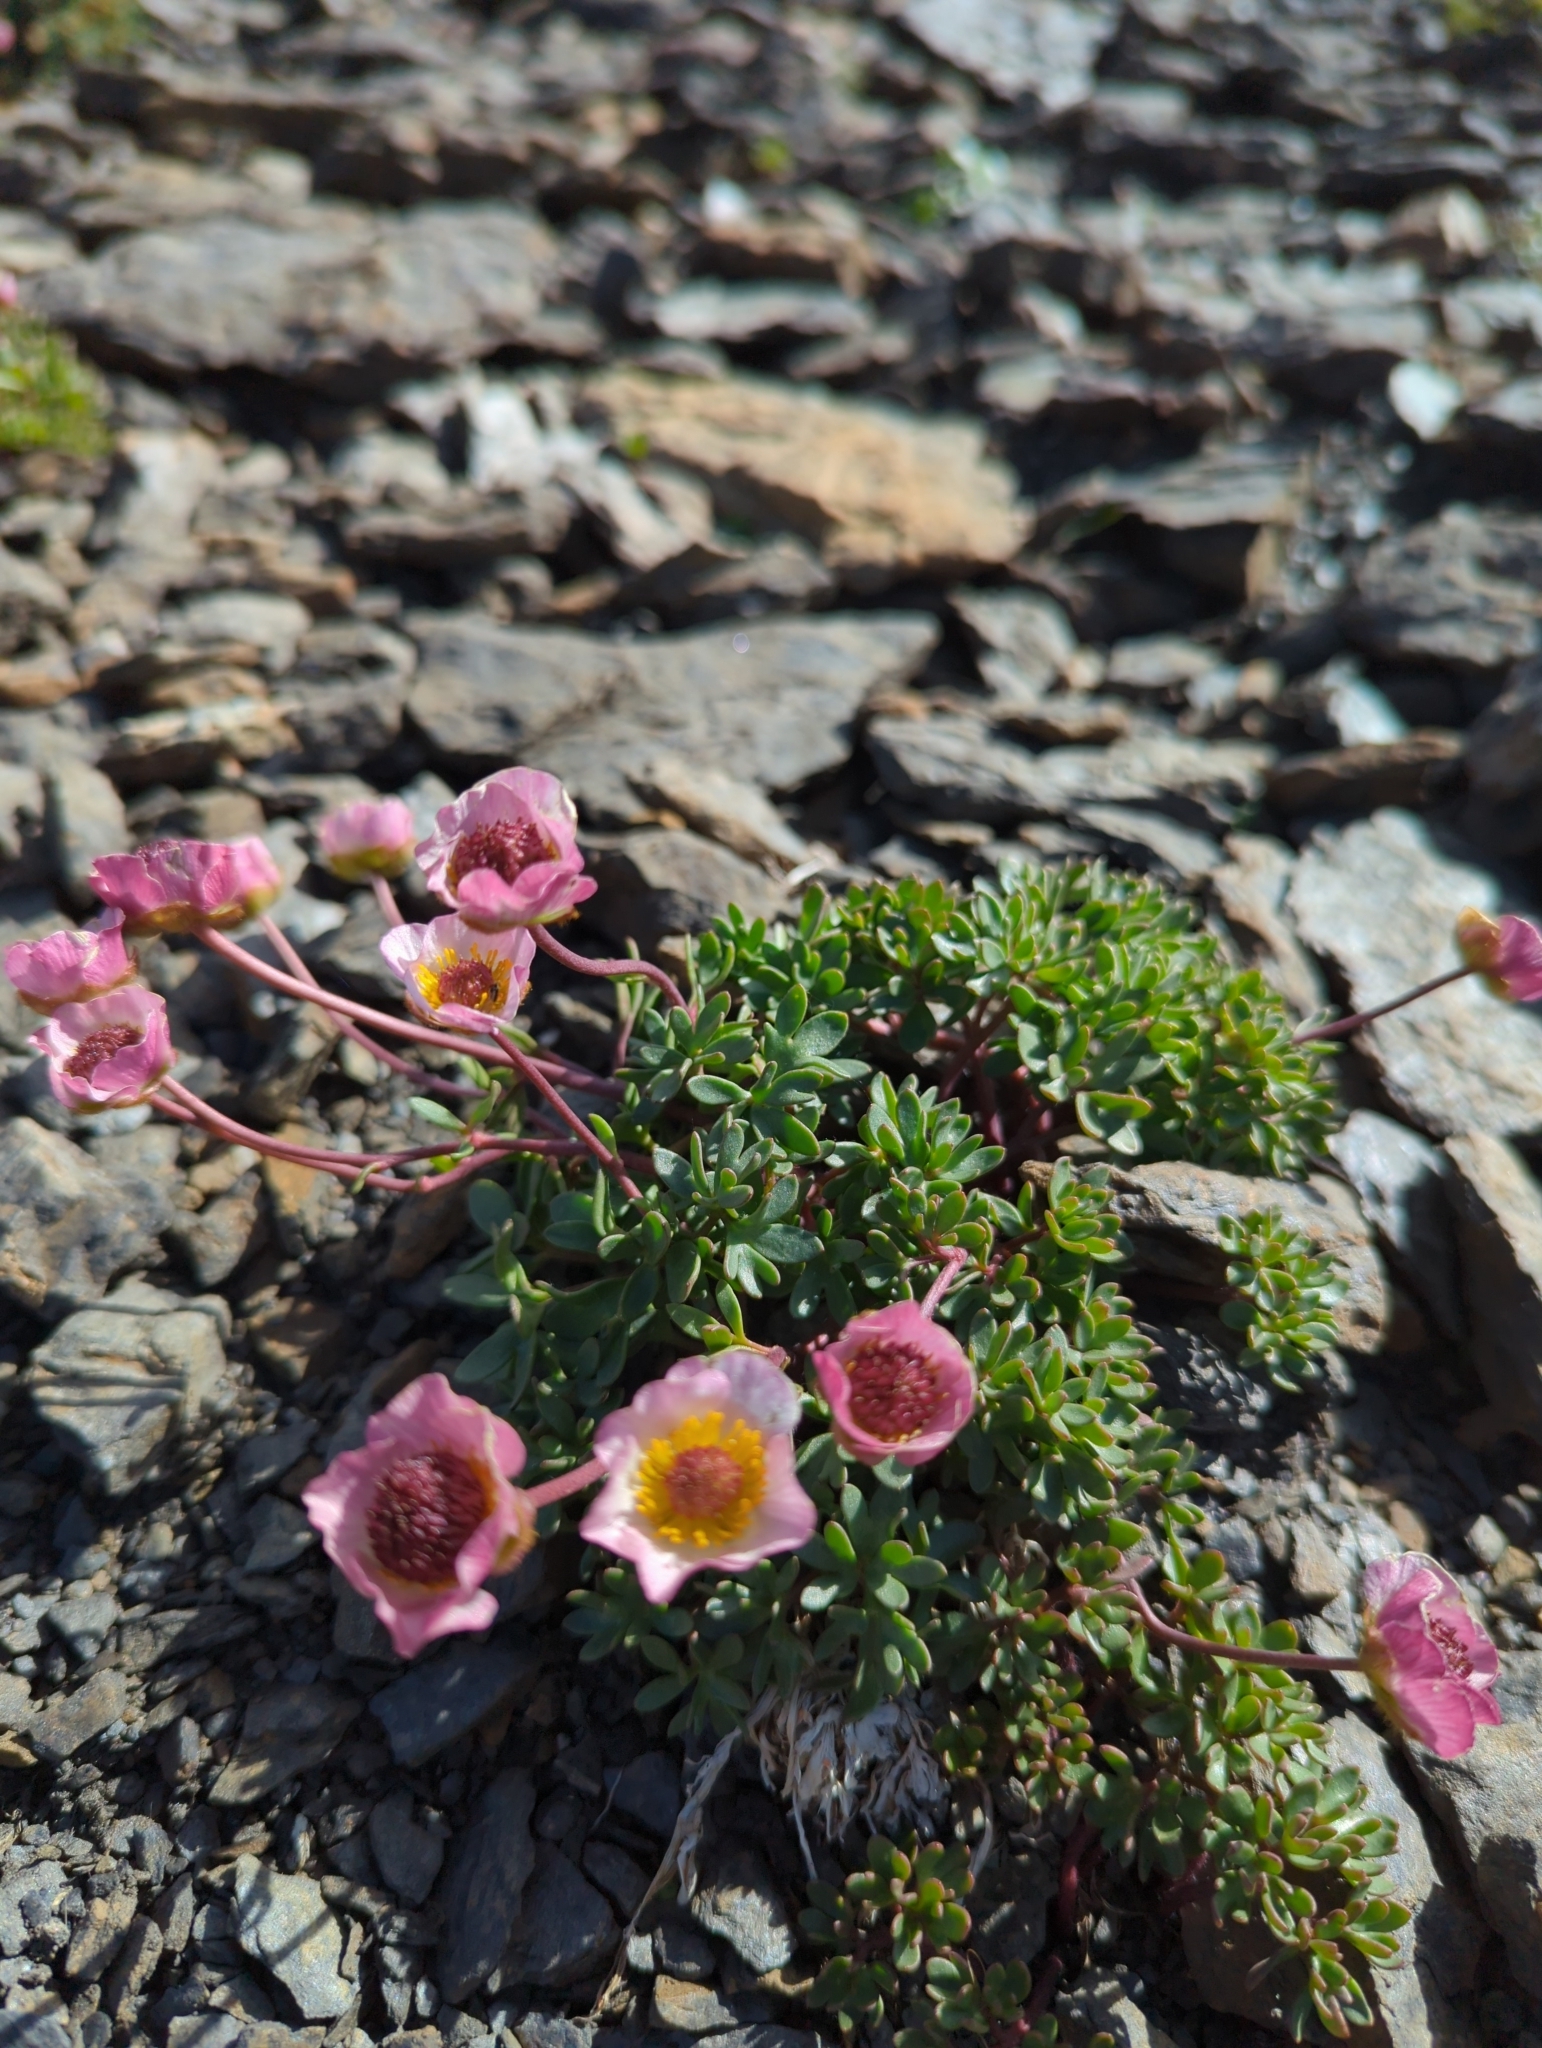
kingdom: Plantae
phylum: Tracheophyta
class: Magnoliopsida
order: Ranunculales
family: Ranunculaceae
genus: Ranunculus
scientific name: Ranunculus glacialis
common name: Glacier buttercup
